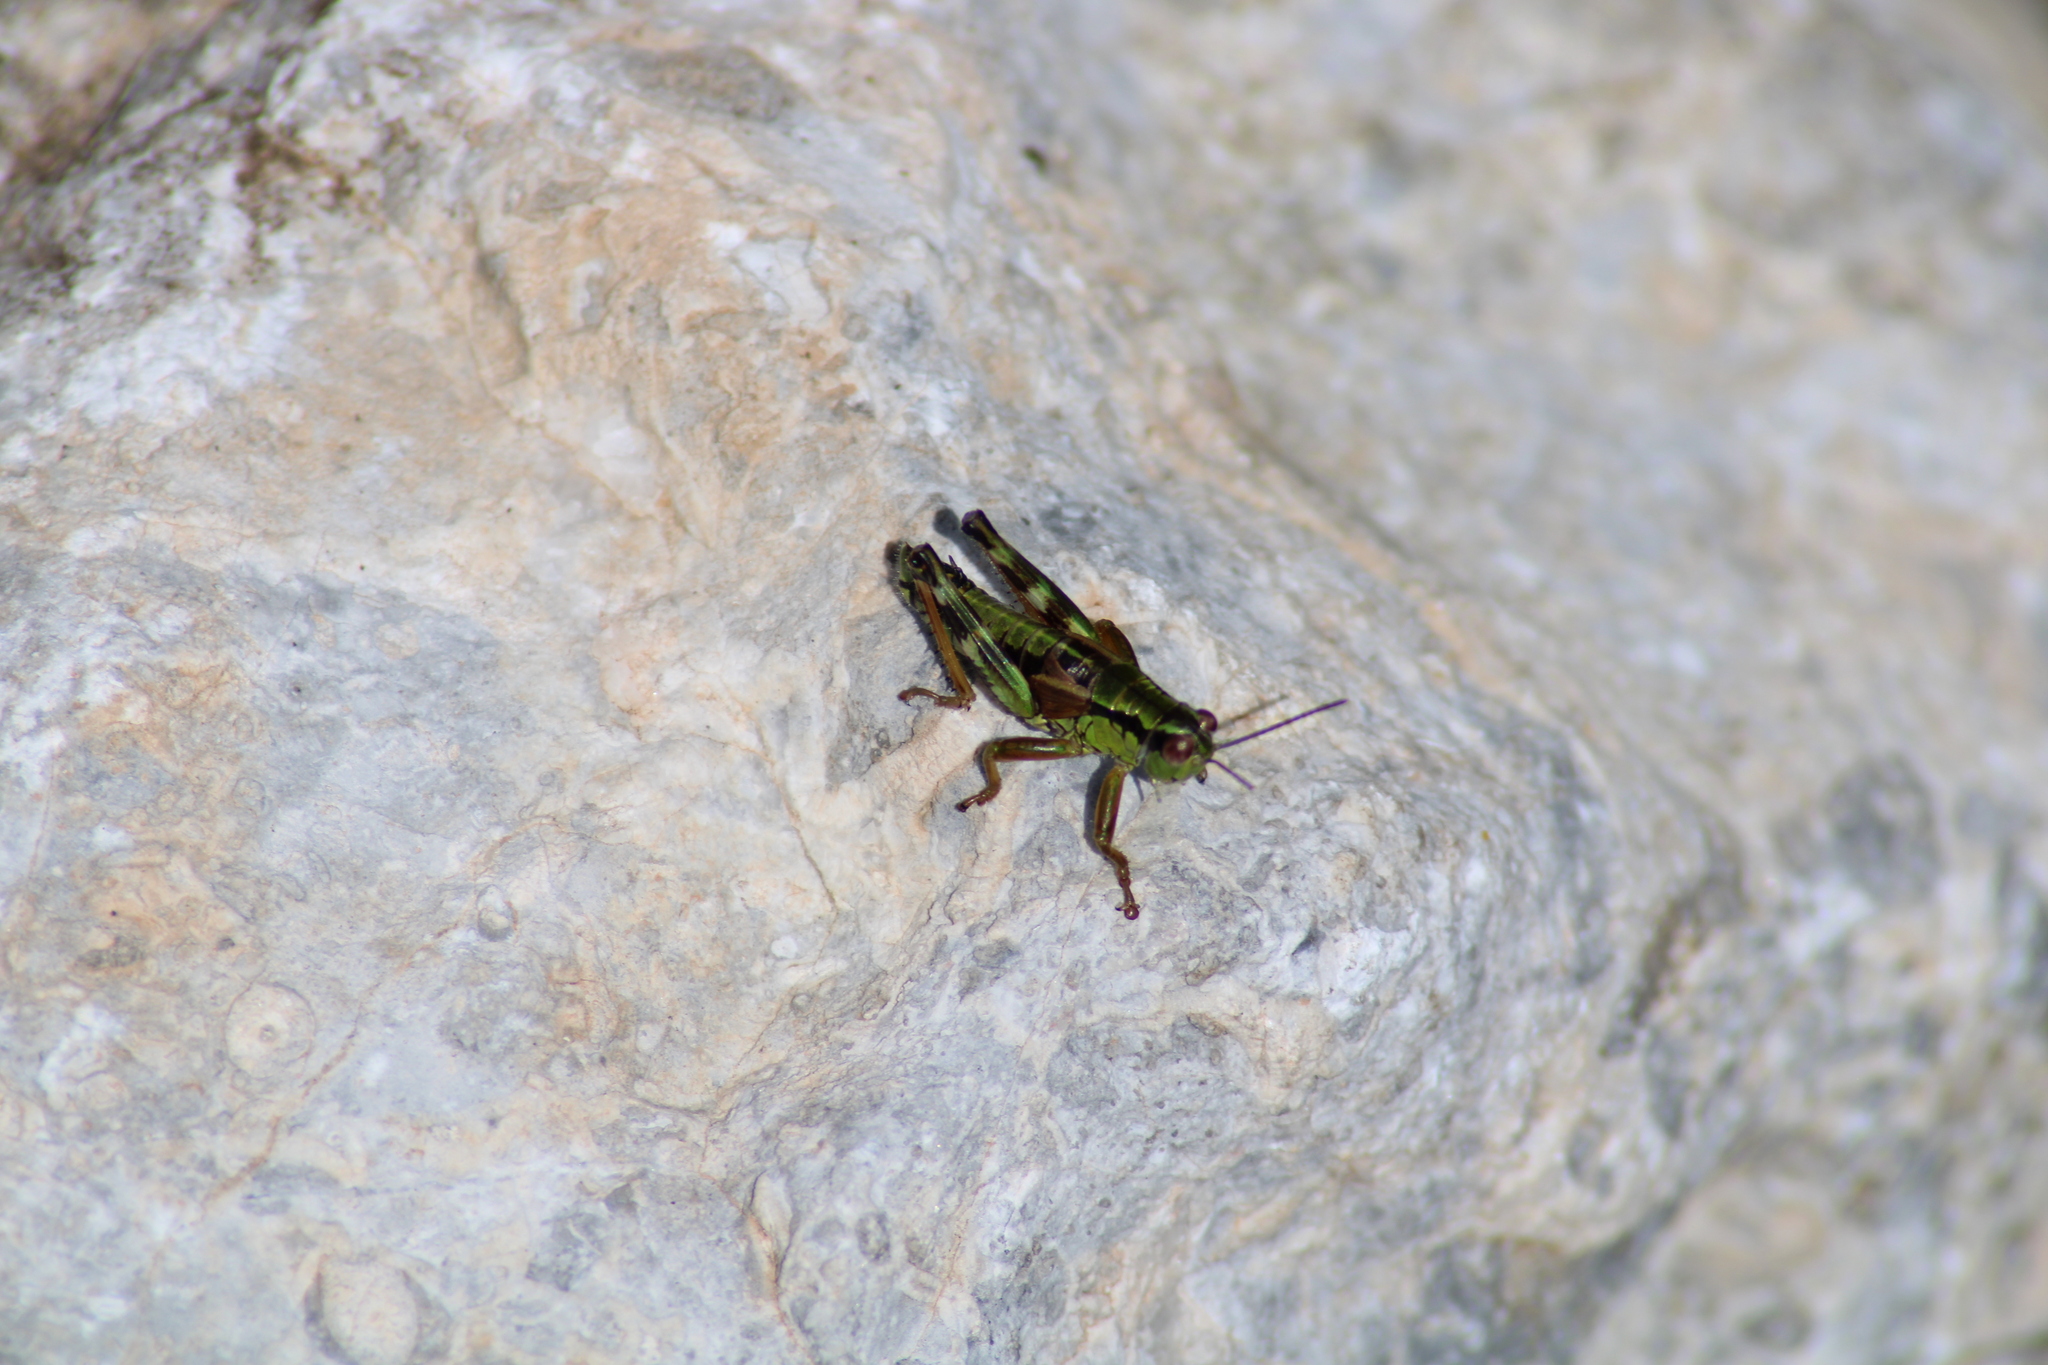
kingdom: Animalia
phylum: Arthropoda
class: Insecta
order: Orthoptera
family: Acrididae
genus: Miramella
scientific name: Miramella alpina
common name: Green mountain grasshopper
